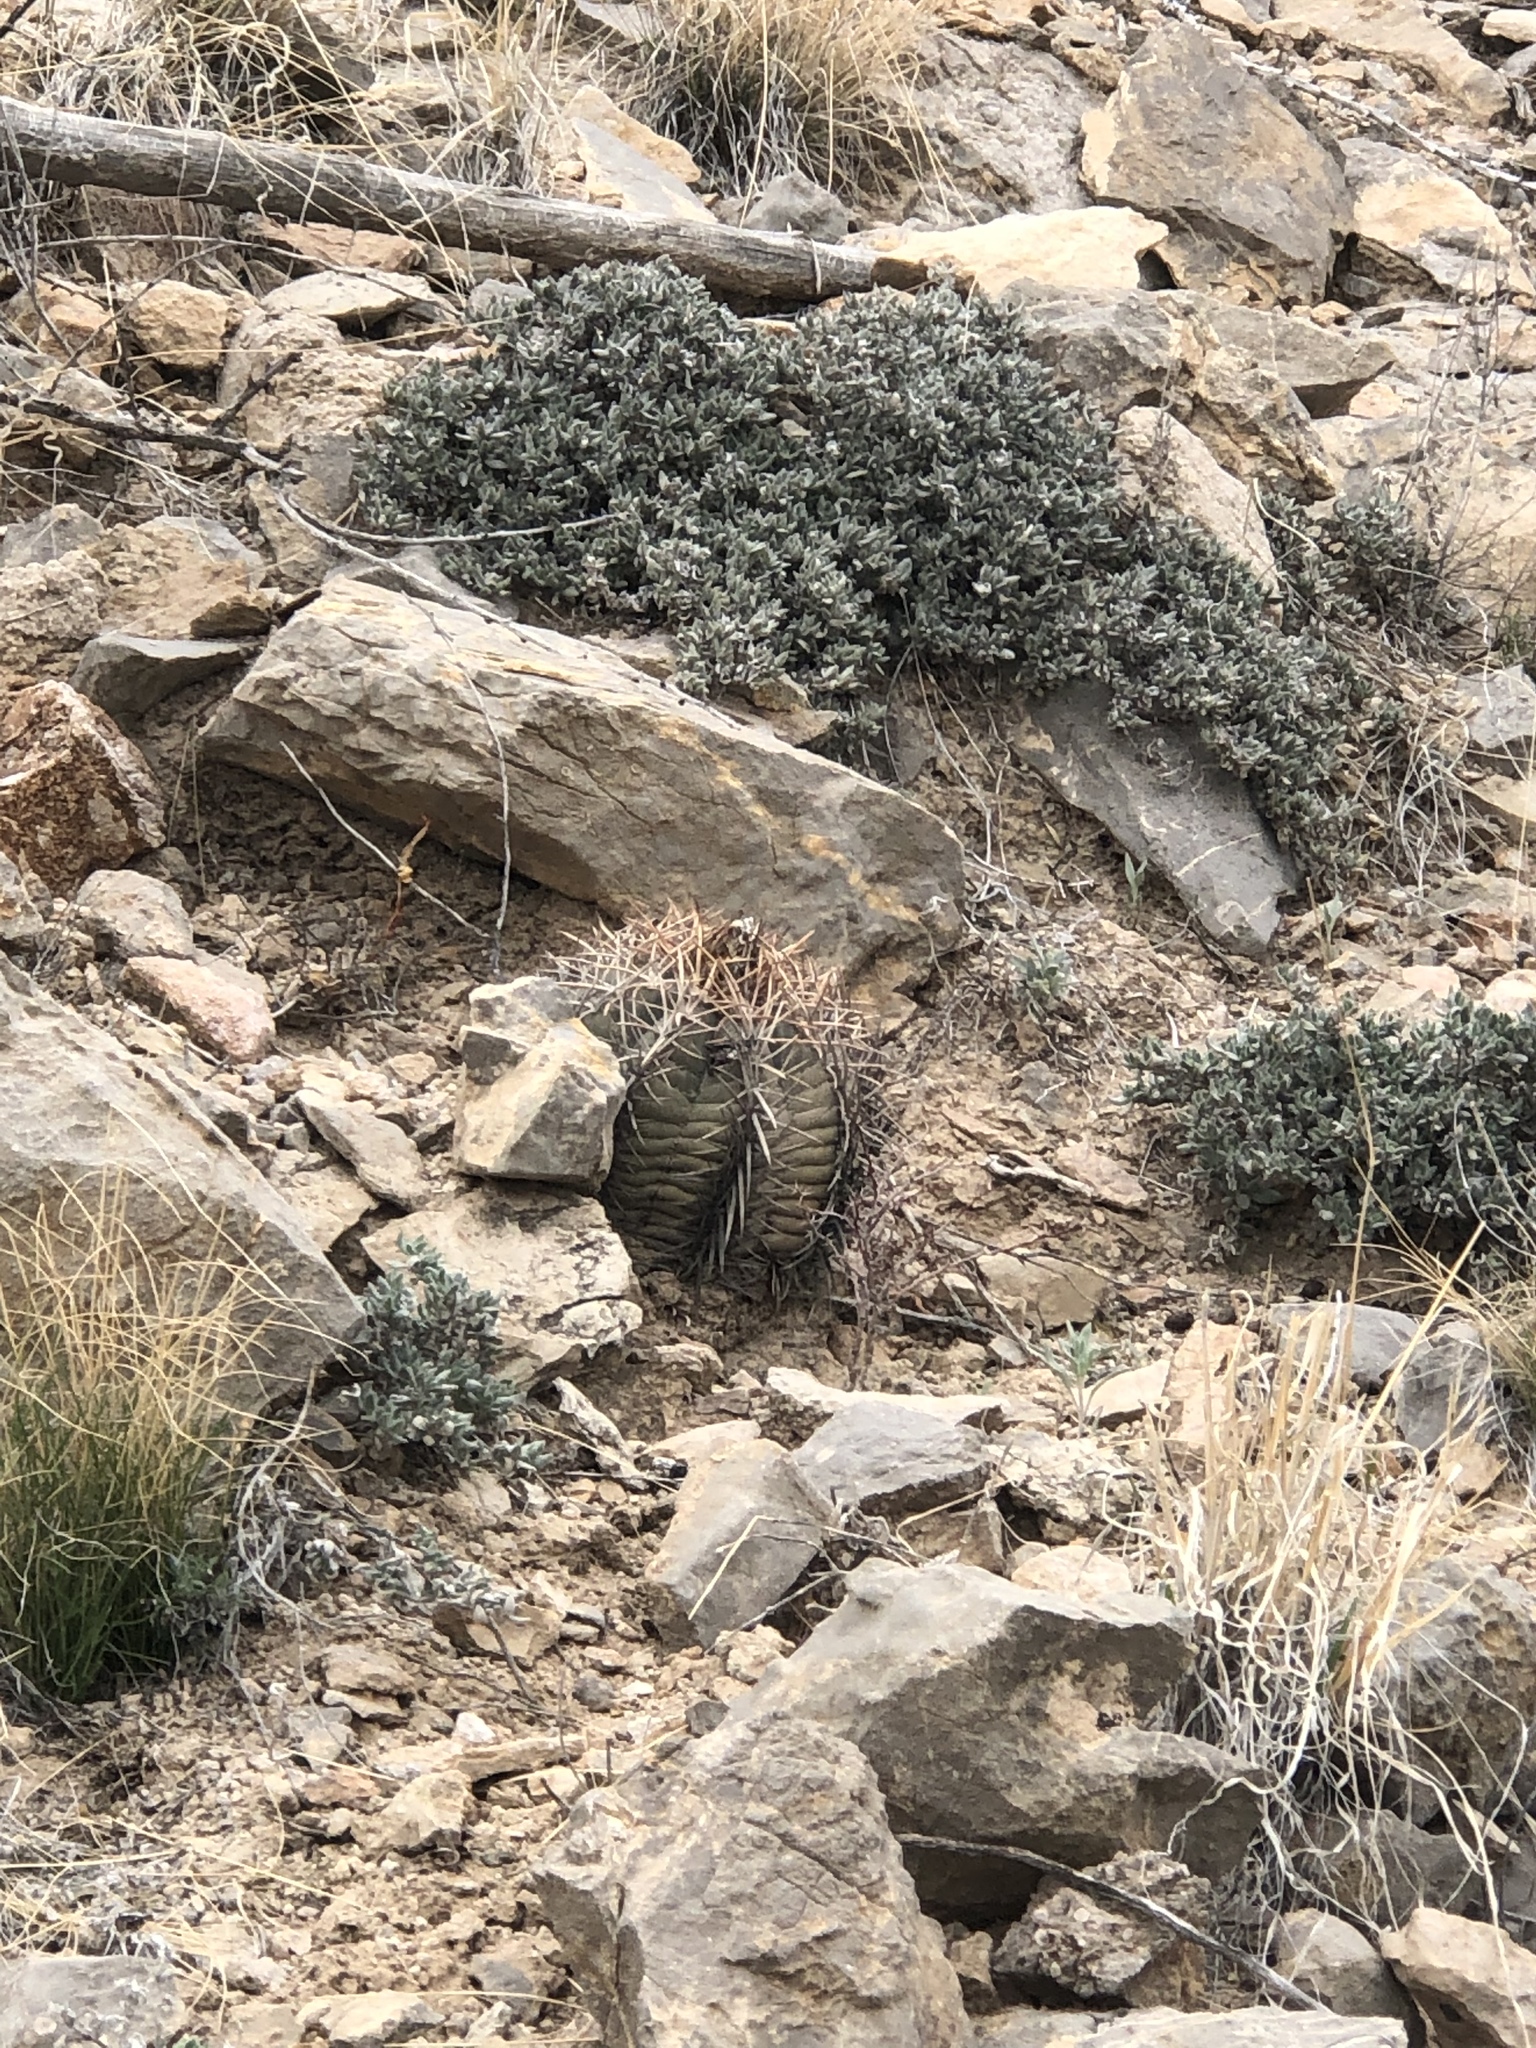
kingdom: Plantae
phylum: Tracheophyta
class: Magnoliopsida
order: Caryophyllales
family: Cactaceae
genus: Echinocactus
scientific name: Echinocactus horizonthalonius
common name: Devilshead
